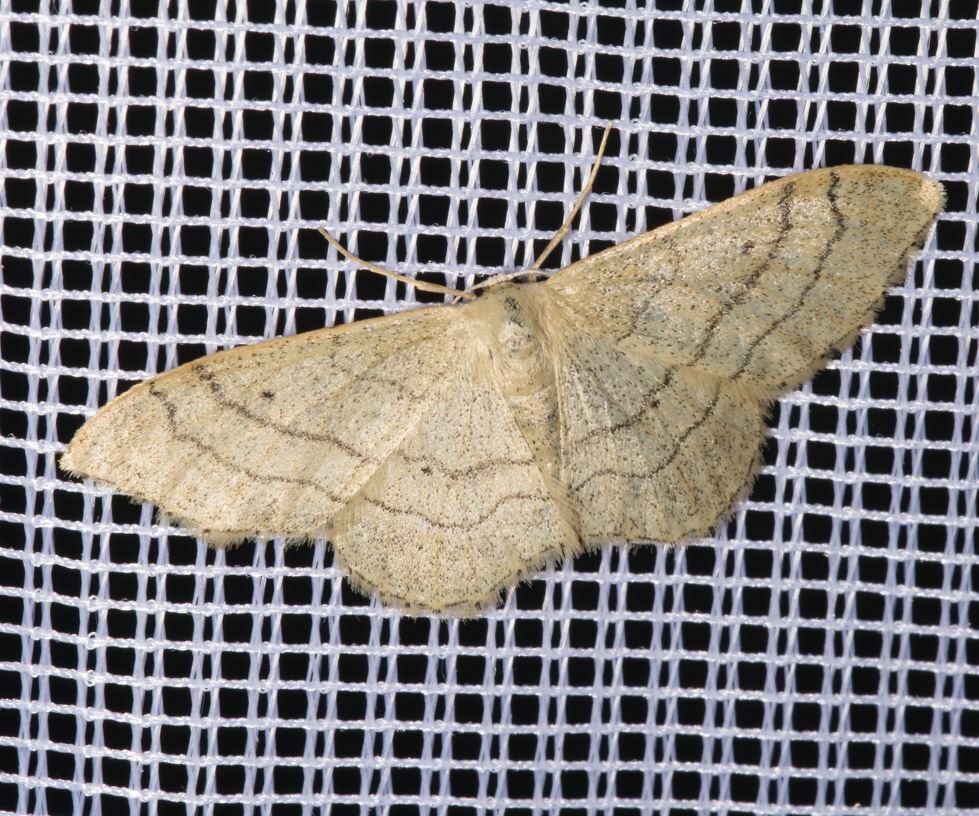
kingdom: Animalia
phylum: Arthropoda
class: Insecta
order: Lepidoptera
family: Geometridae
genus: Idaea
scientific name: Idaea aversata
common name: Riband wave
